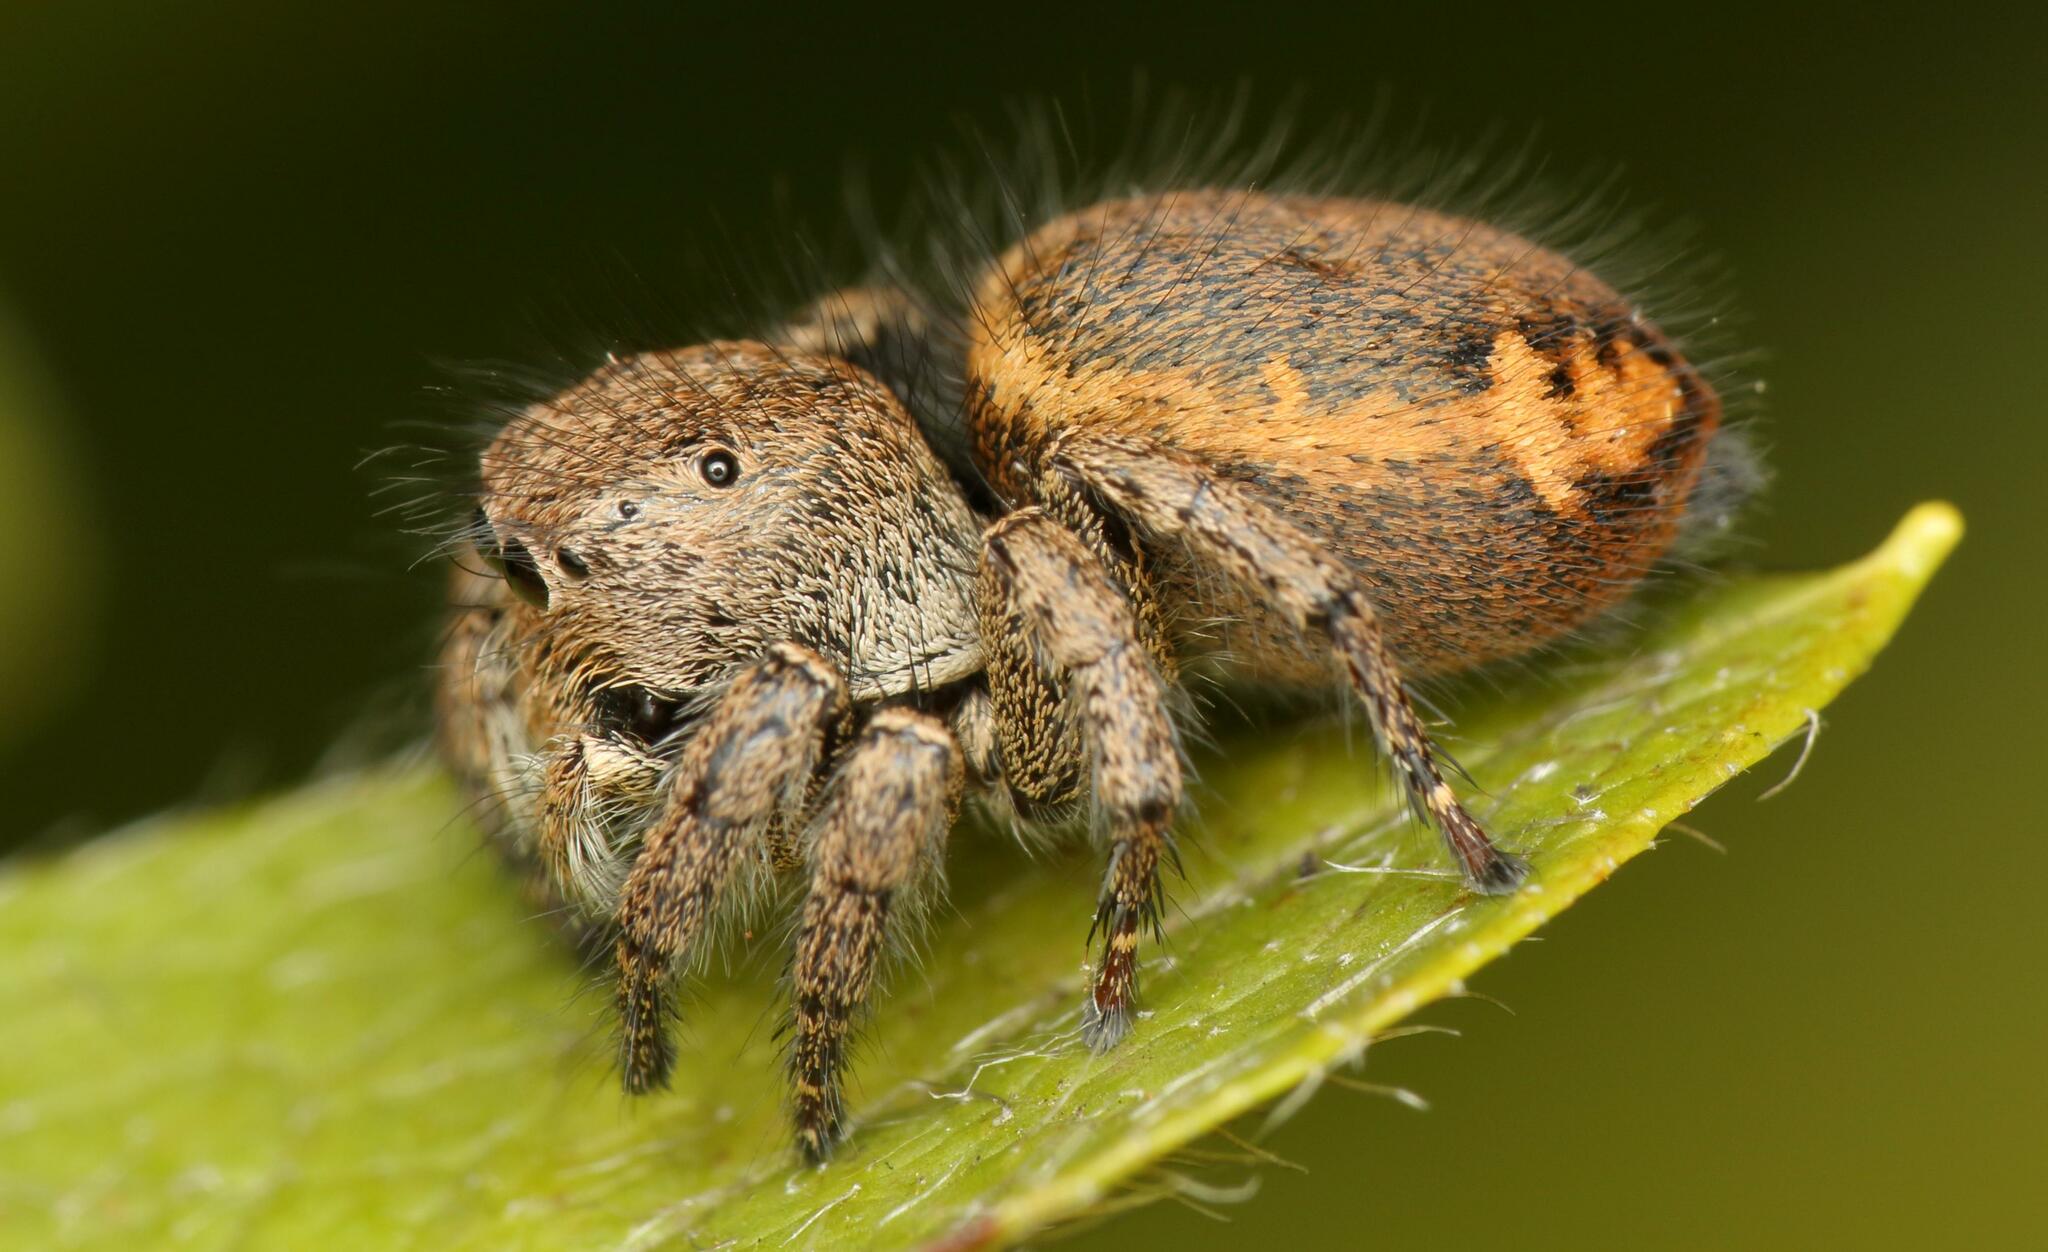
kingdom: Animalia
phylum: Arthropoda
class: Arachnida
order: Araneae
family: Salticidae
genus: Baryphas
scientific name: Baryphas ahenus
